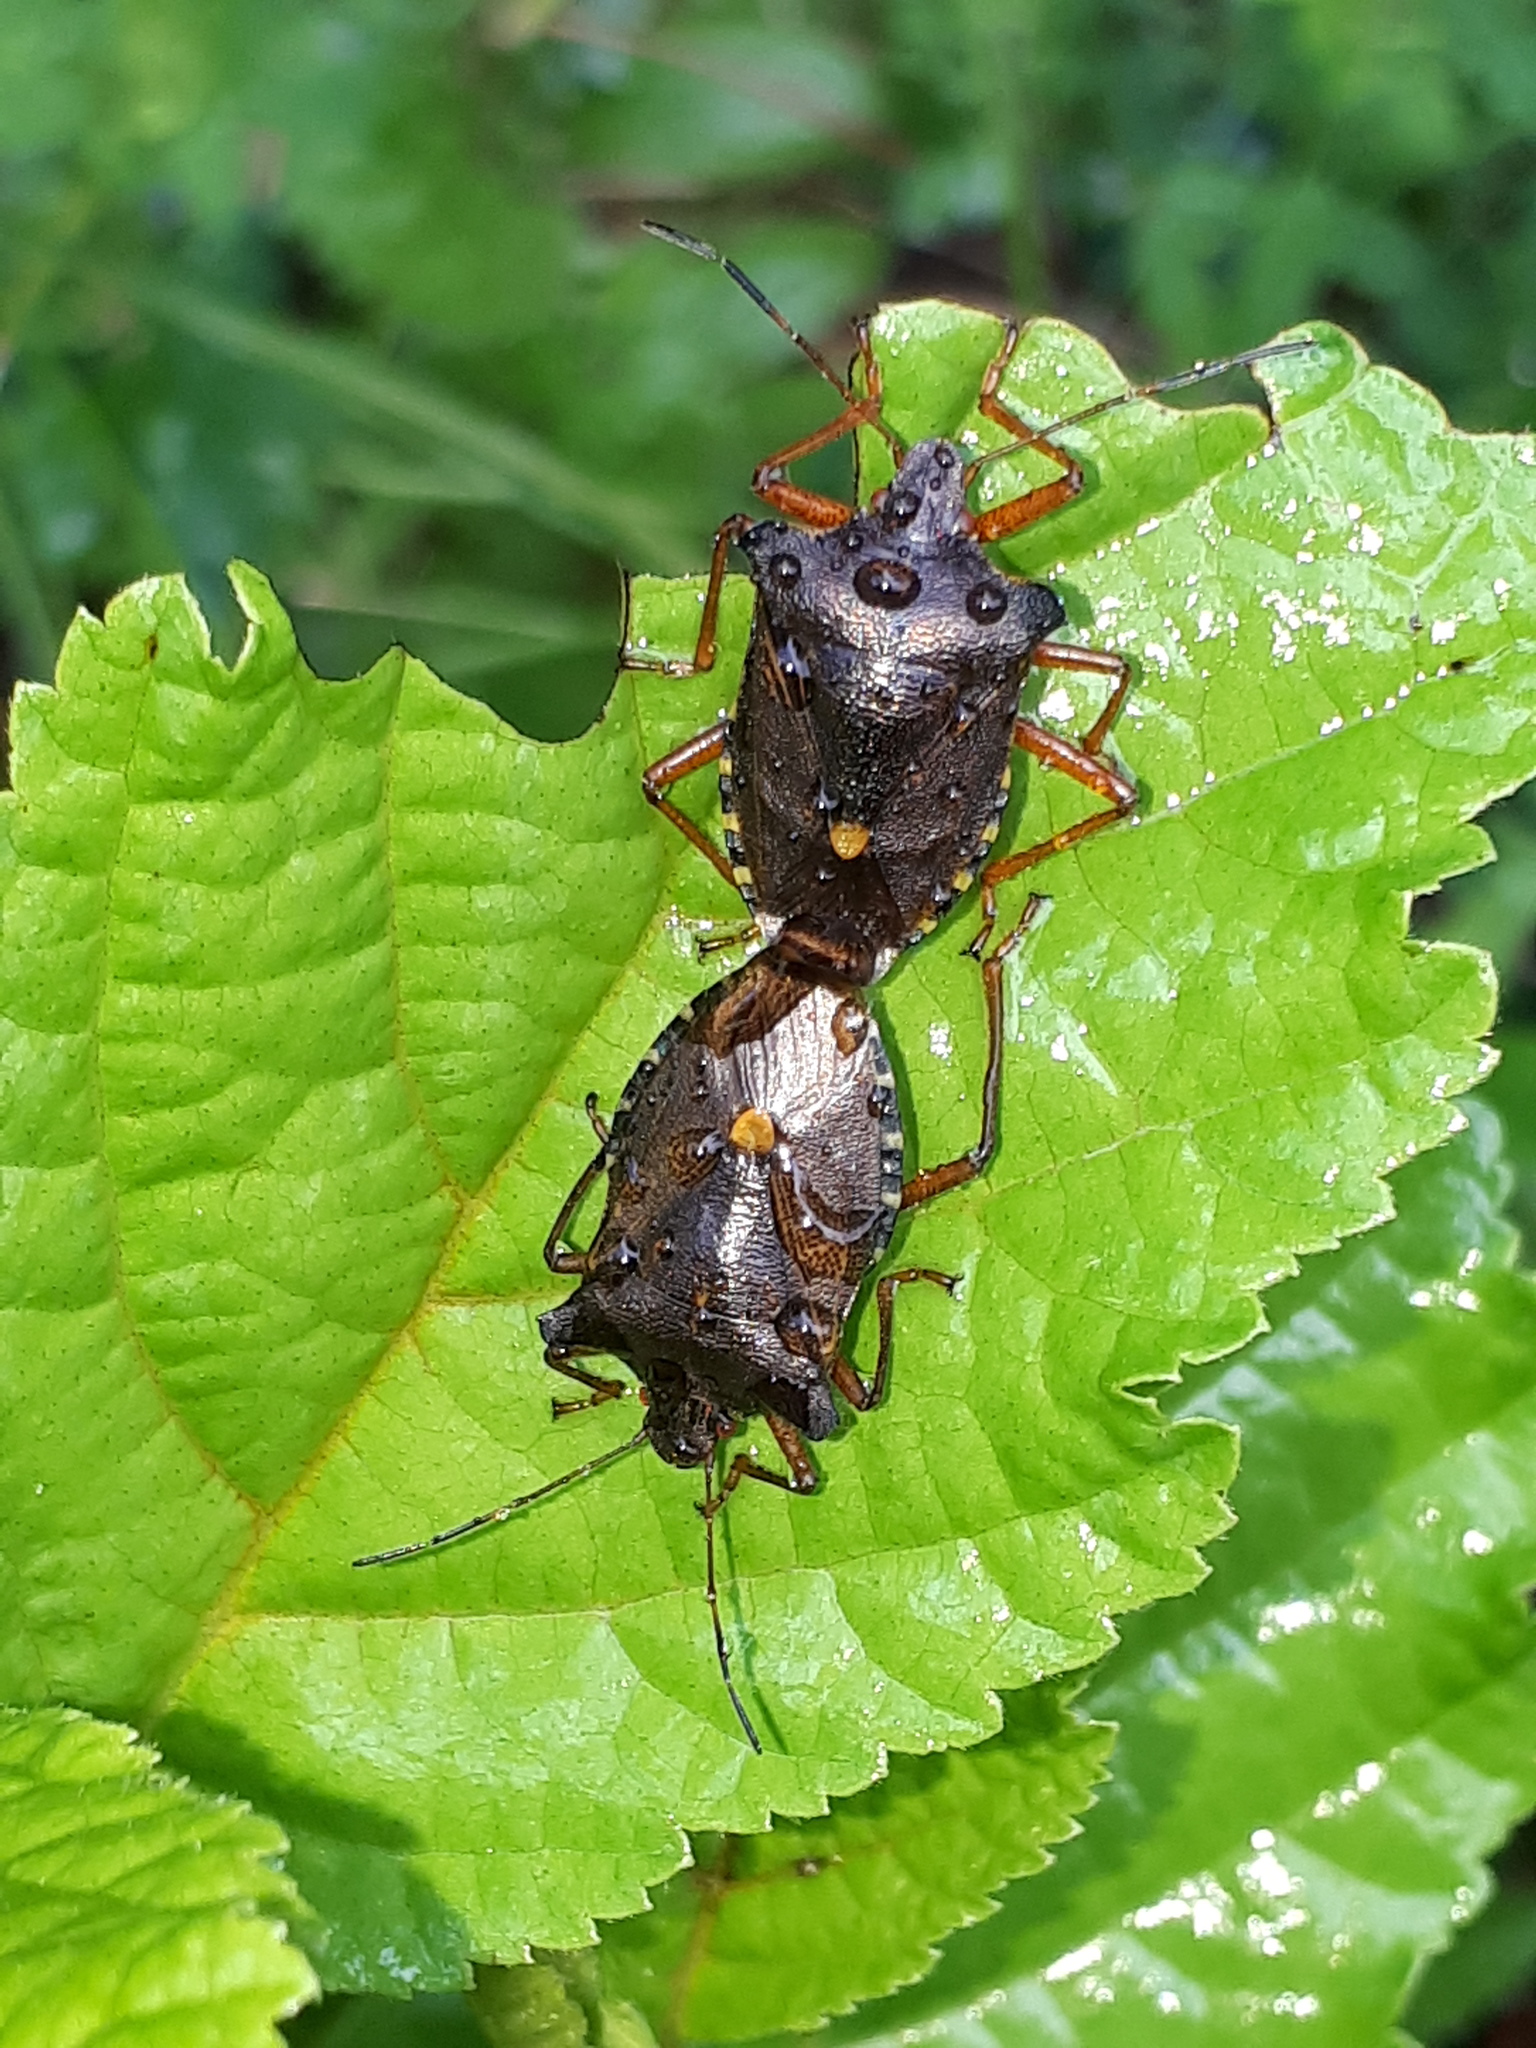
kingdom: Animalia
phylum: Arthropoda
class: Insecta
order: Hemiptera
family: Pentatomidae
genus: Pentatoma
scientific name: Pentatoma rufipes
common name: Forest bug
